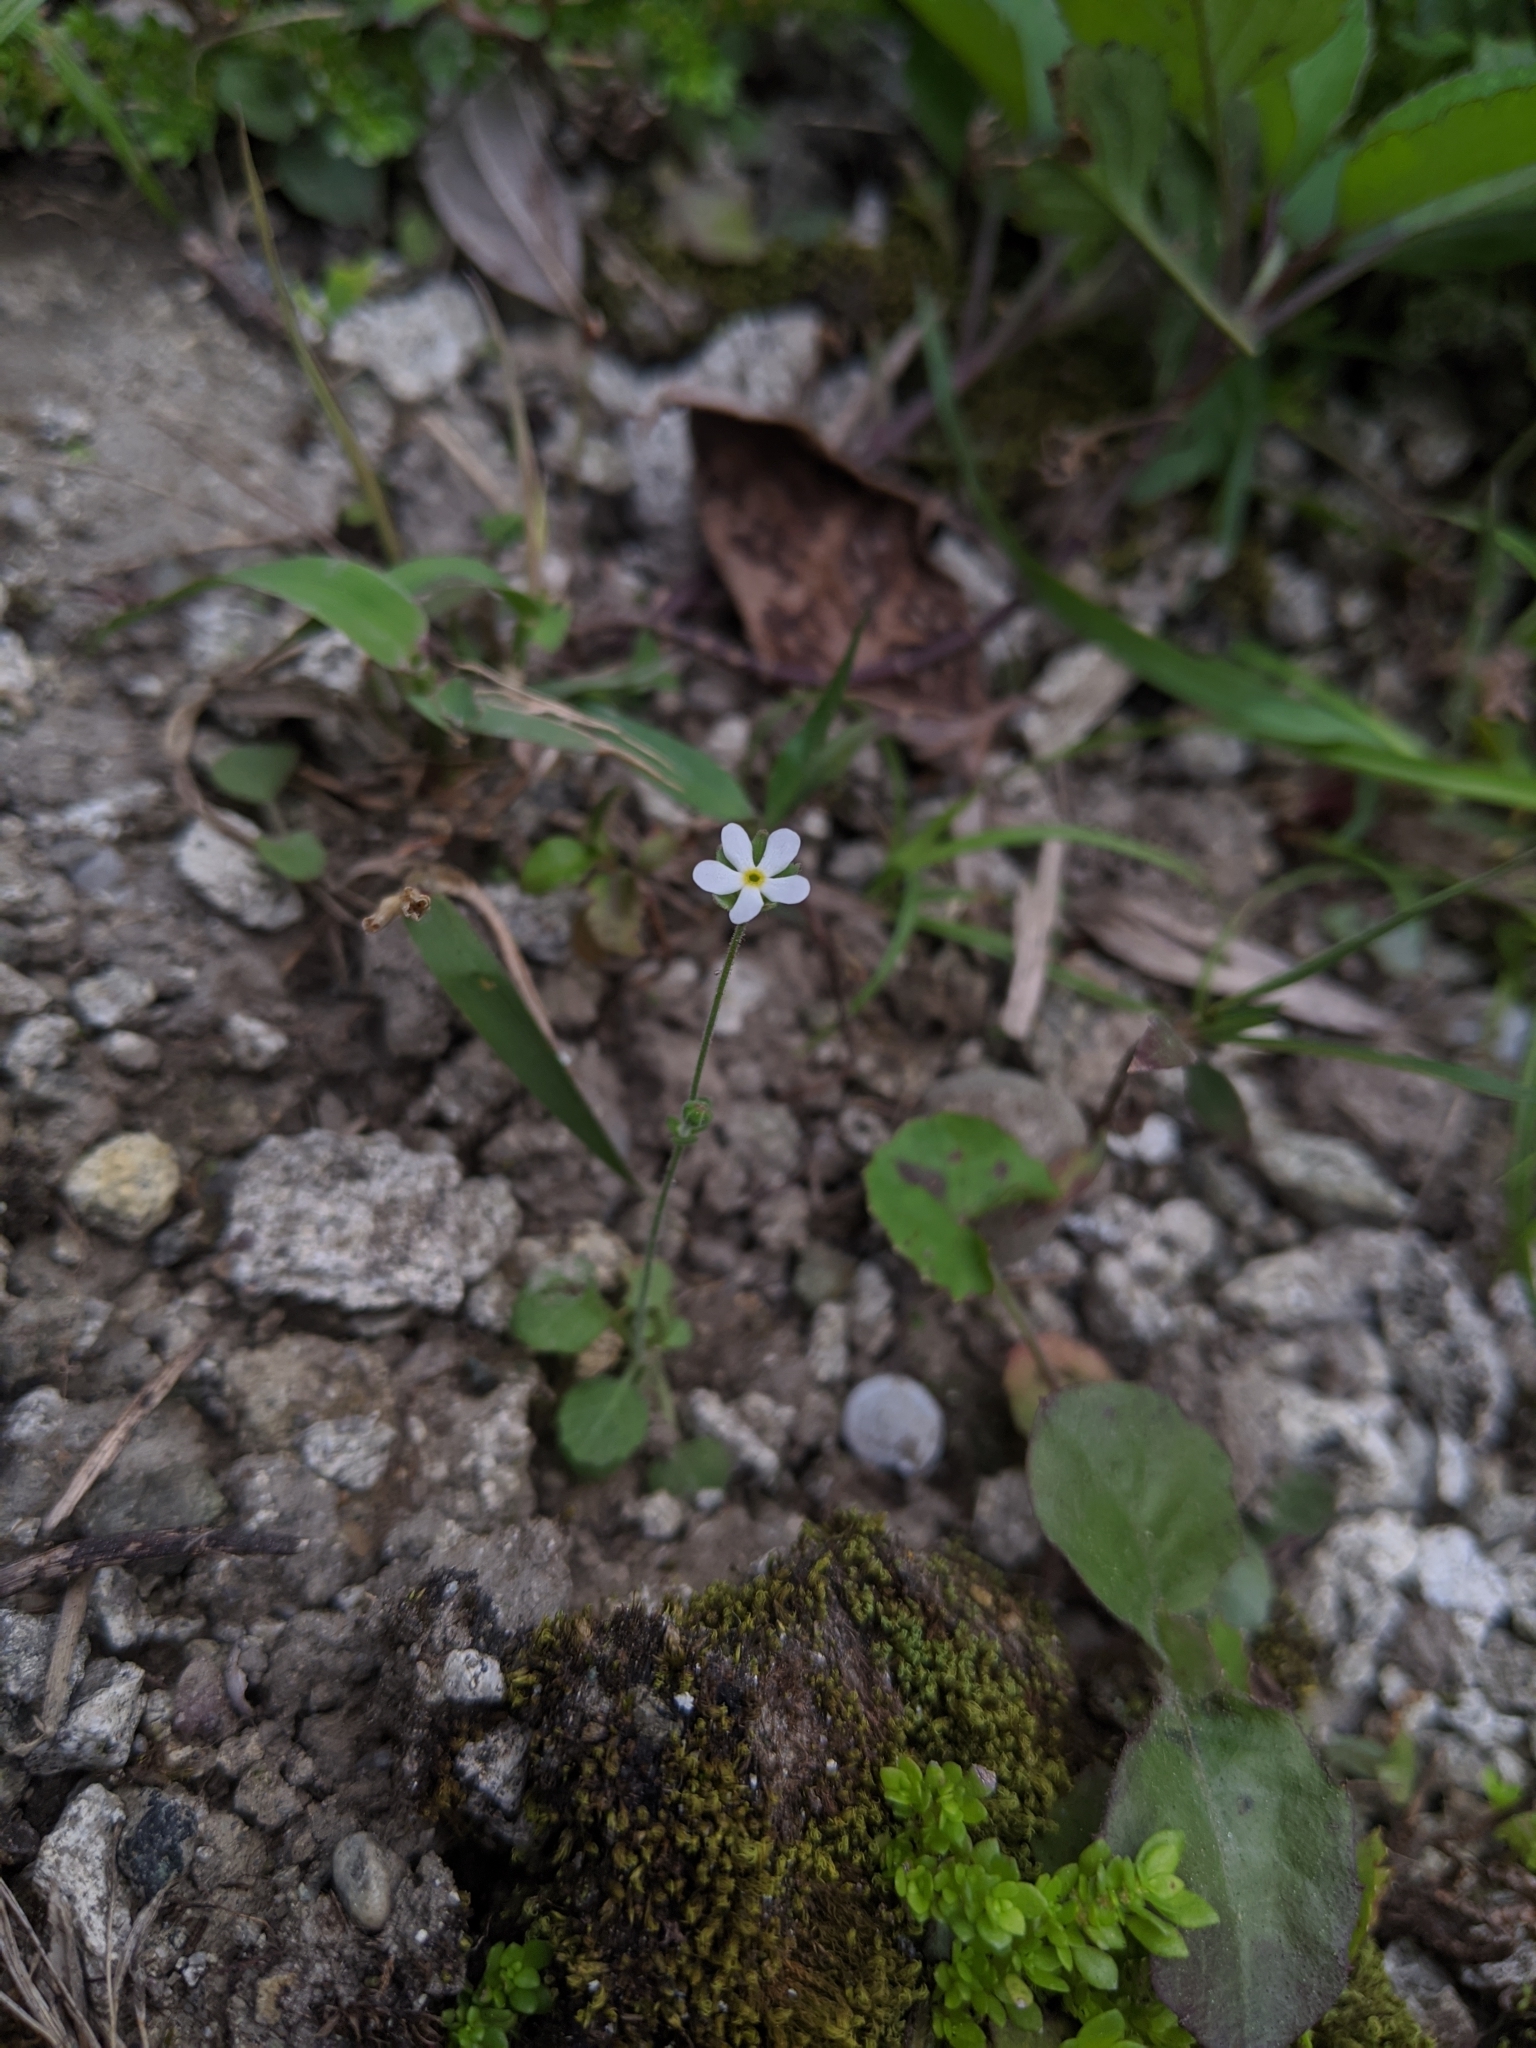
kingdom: Plantae
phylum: Tracheophyta
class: Magnoliopsida
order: Ericales
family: Primulaceae
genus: Androsace
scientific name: Androsace umbellata
